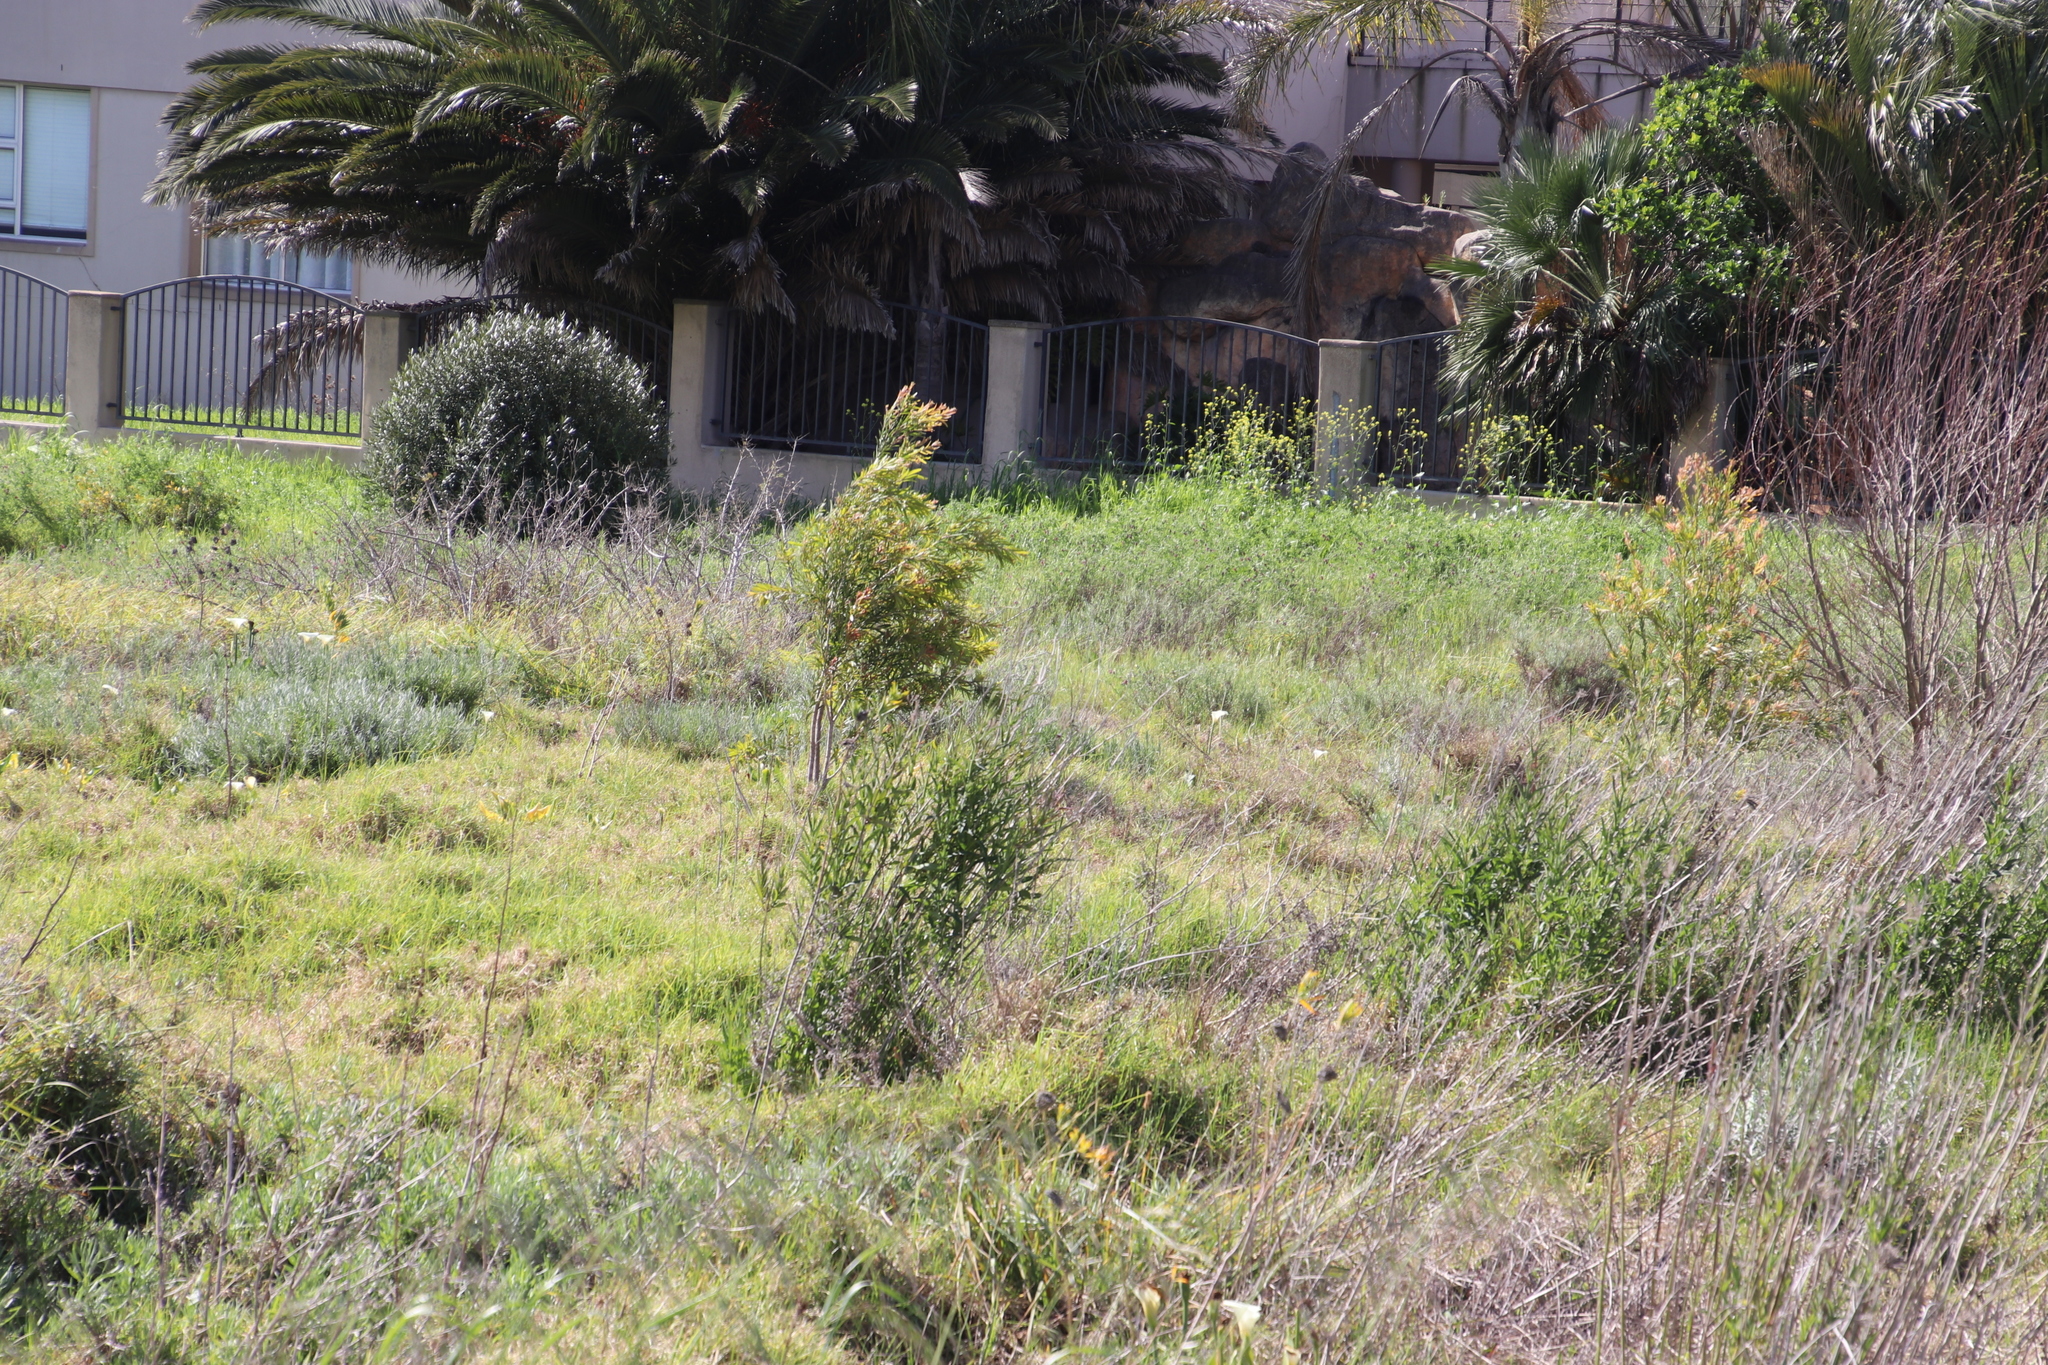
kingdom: Plantae
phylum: Tracheophyta
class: Magnoliopsida
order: Myrtales
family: Myrtaceae
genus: Callistemon
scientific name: Callistemon viminalis
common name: Drooping bottlebrush
